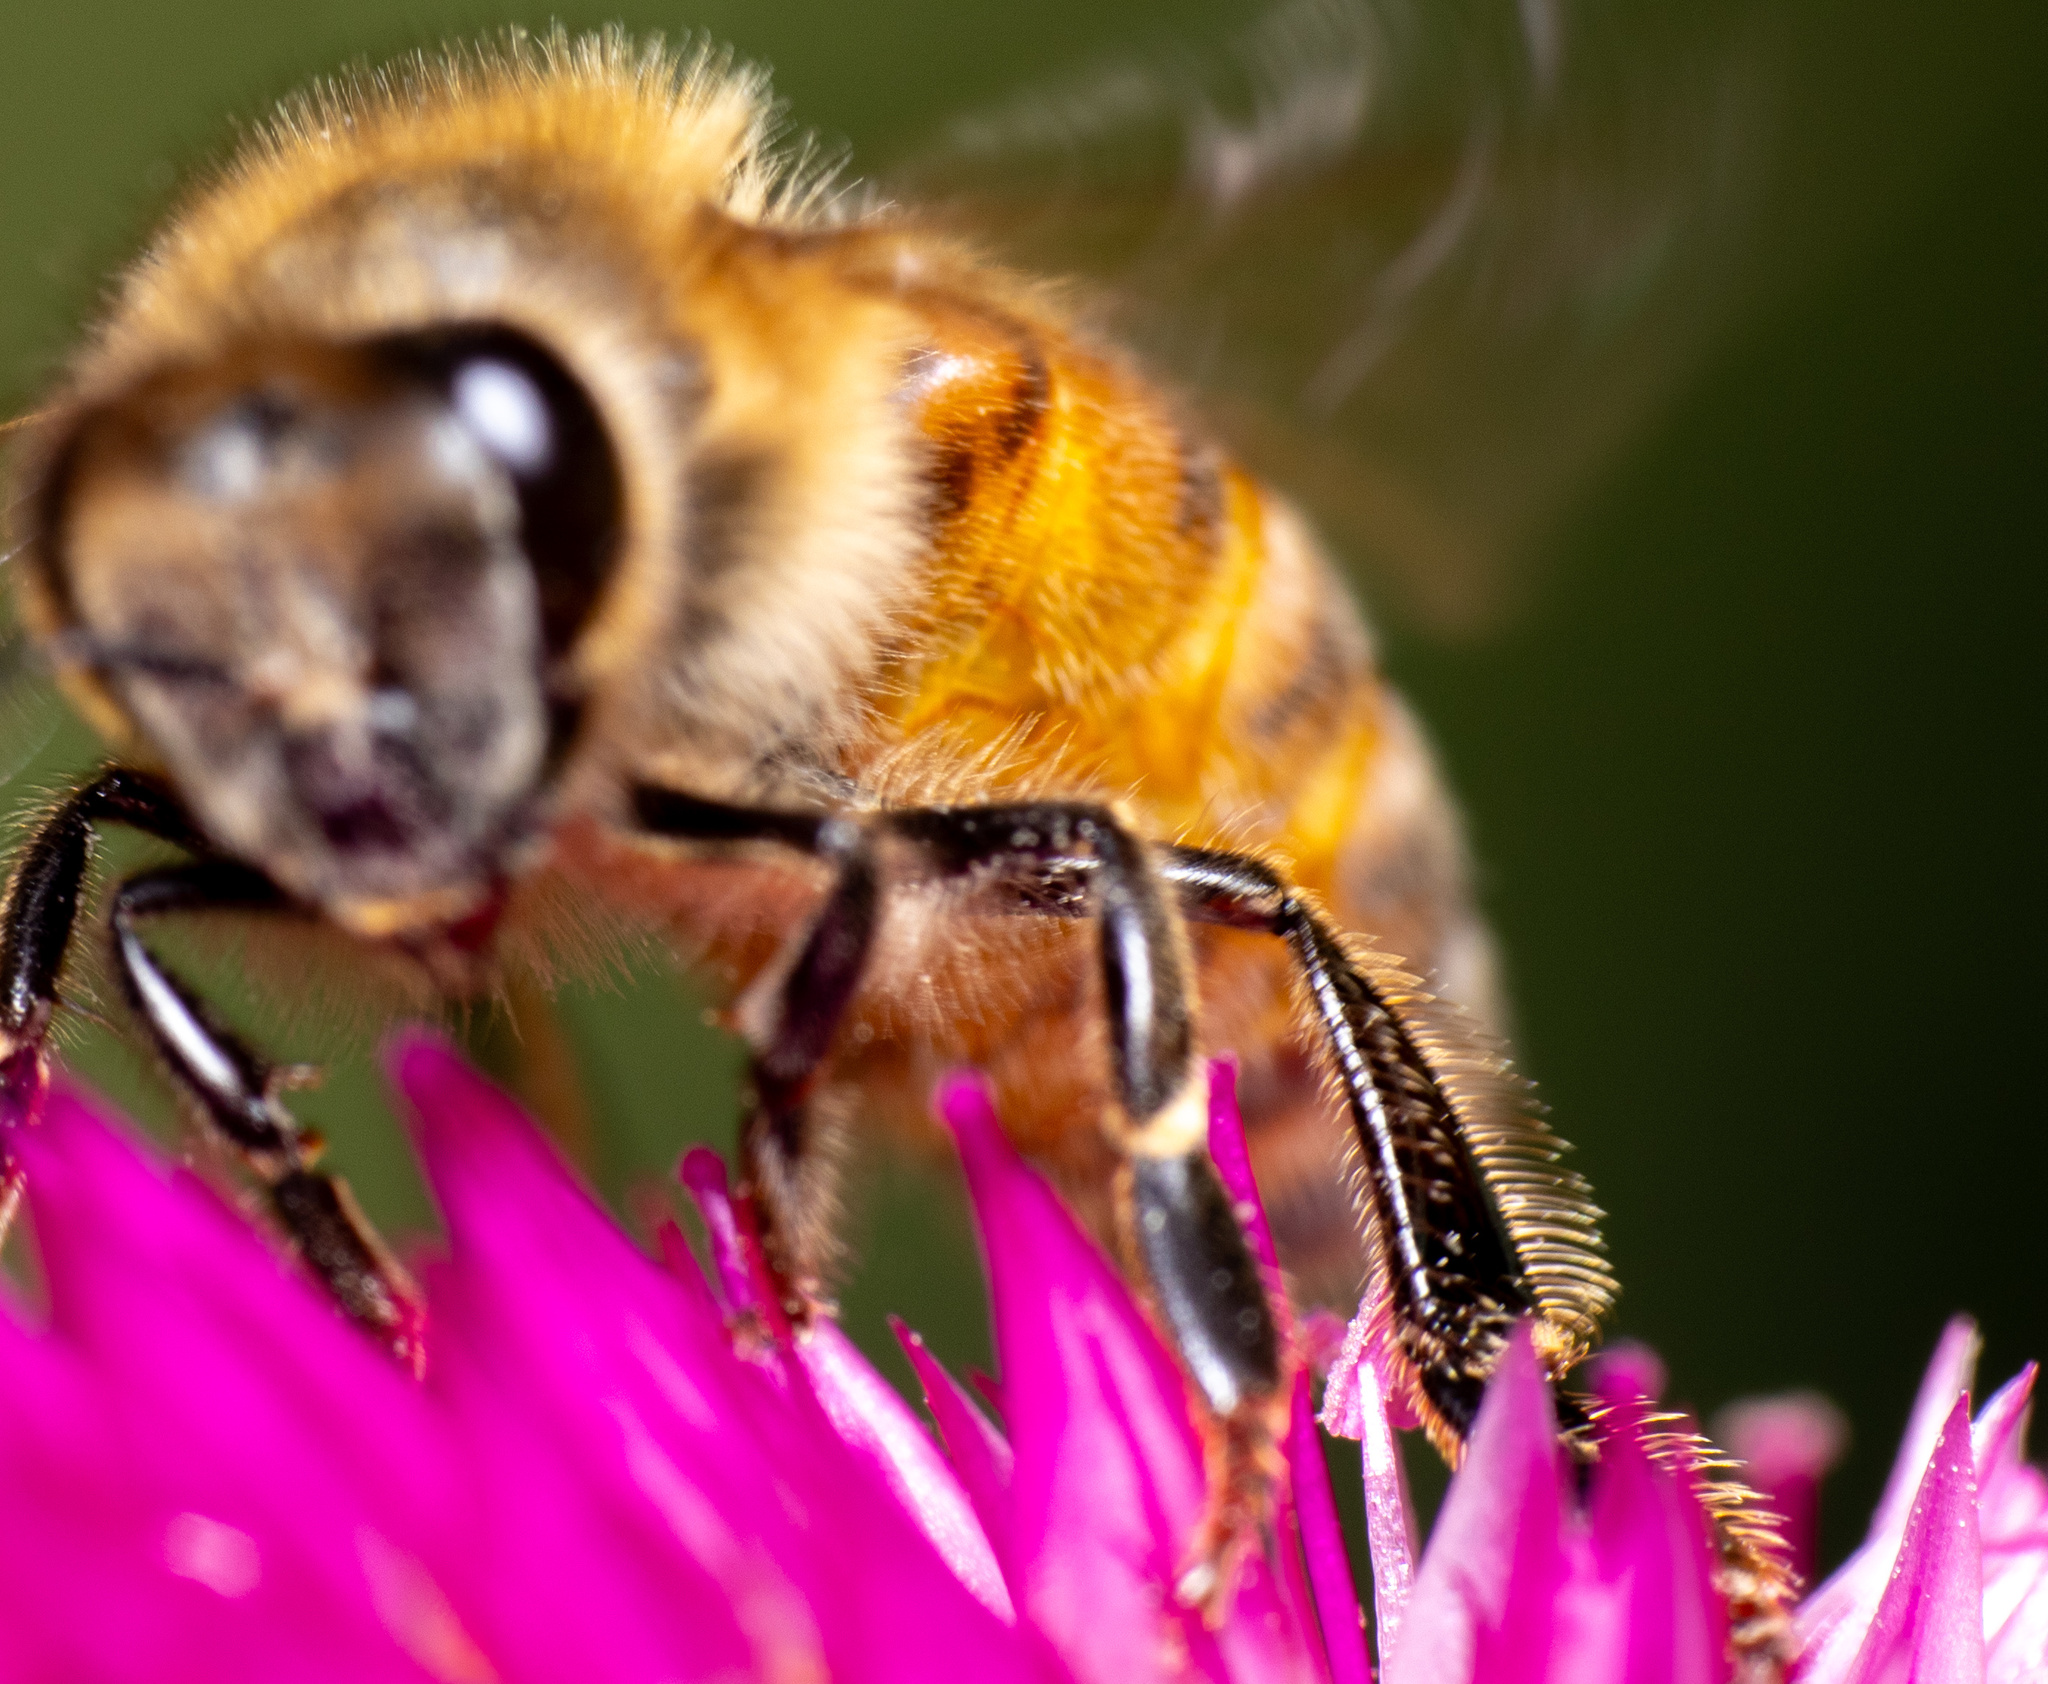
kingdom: Animalia
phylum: Arthropoda
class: Insecta
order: Hymenoptera
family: Apidae
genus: Apis
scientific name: Apis mellifera
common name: Honey bee
